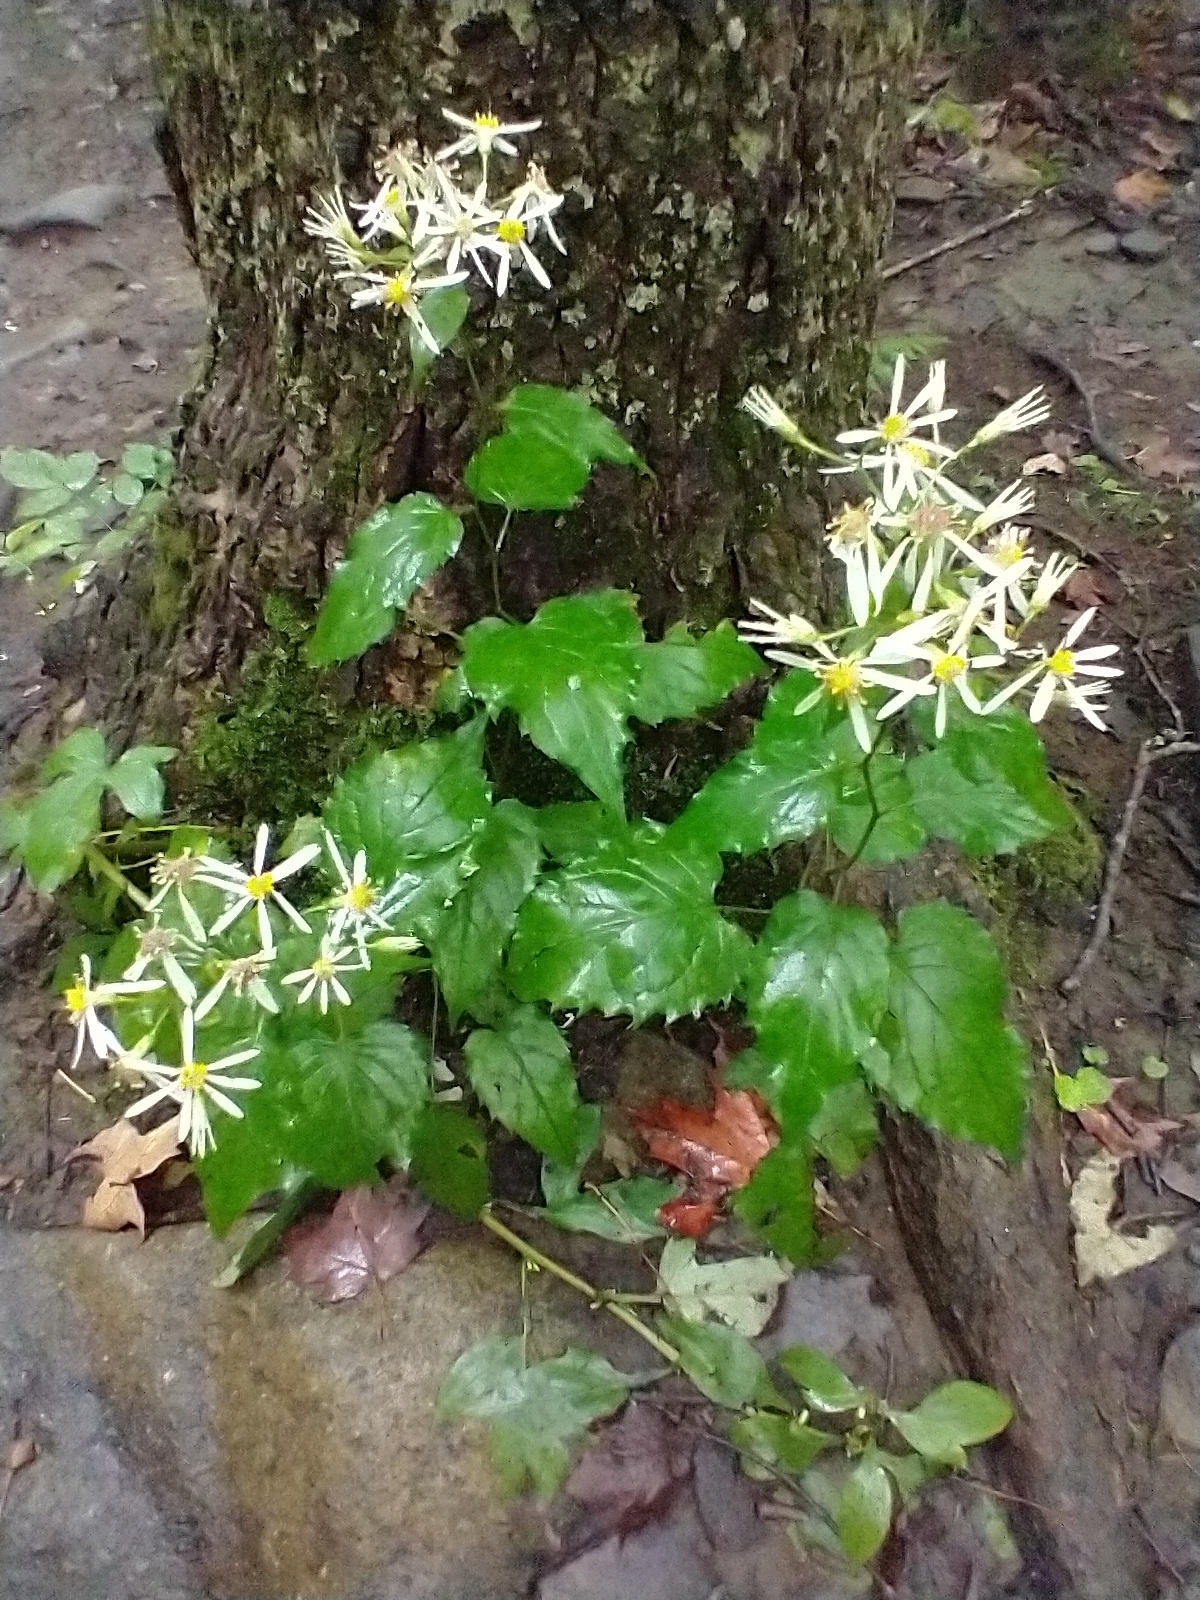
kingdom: Plantae
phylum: Tracheophyta
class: Magnoliopsida
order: Asterales
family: Asteraceae
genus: Eurybia
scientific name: Eurybia divaricata
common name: White wood aster
